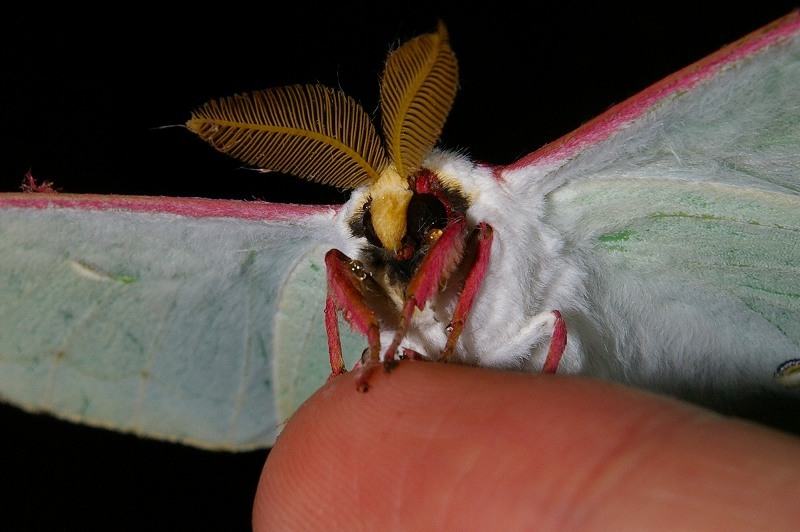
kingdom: Animalia
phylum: Arthropoda
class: Insecta
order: Lepidoptera
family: Saturniidae
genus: Actias
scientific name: Actias aliena
